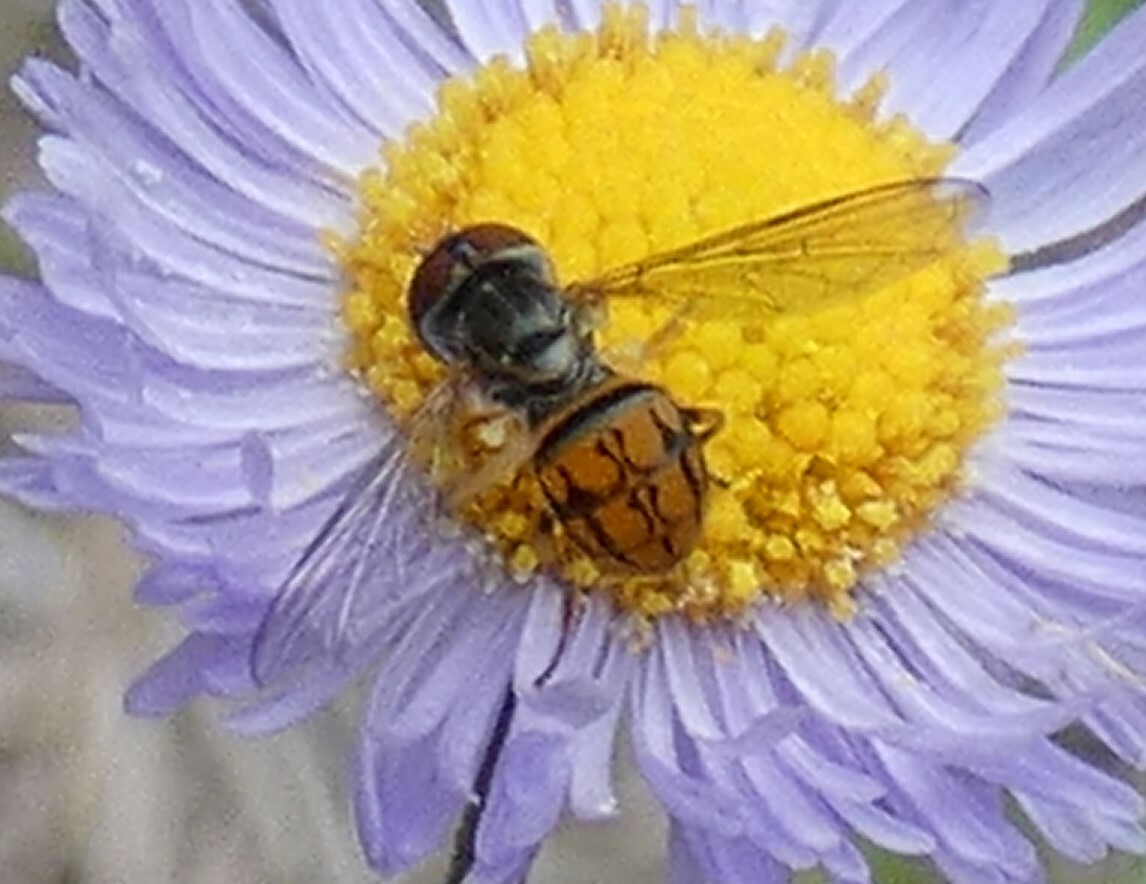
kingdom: Animalia
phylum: Arthropoda
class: Insecta
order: Diptera
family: Syrphidae
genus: Toxomerus
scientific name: Toxomerus boscii
